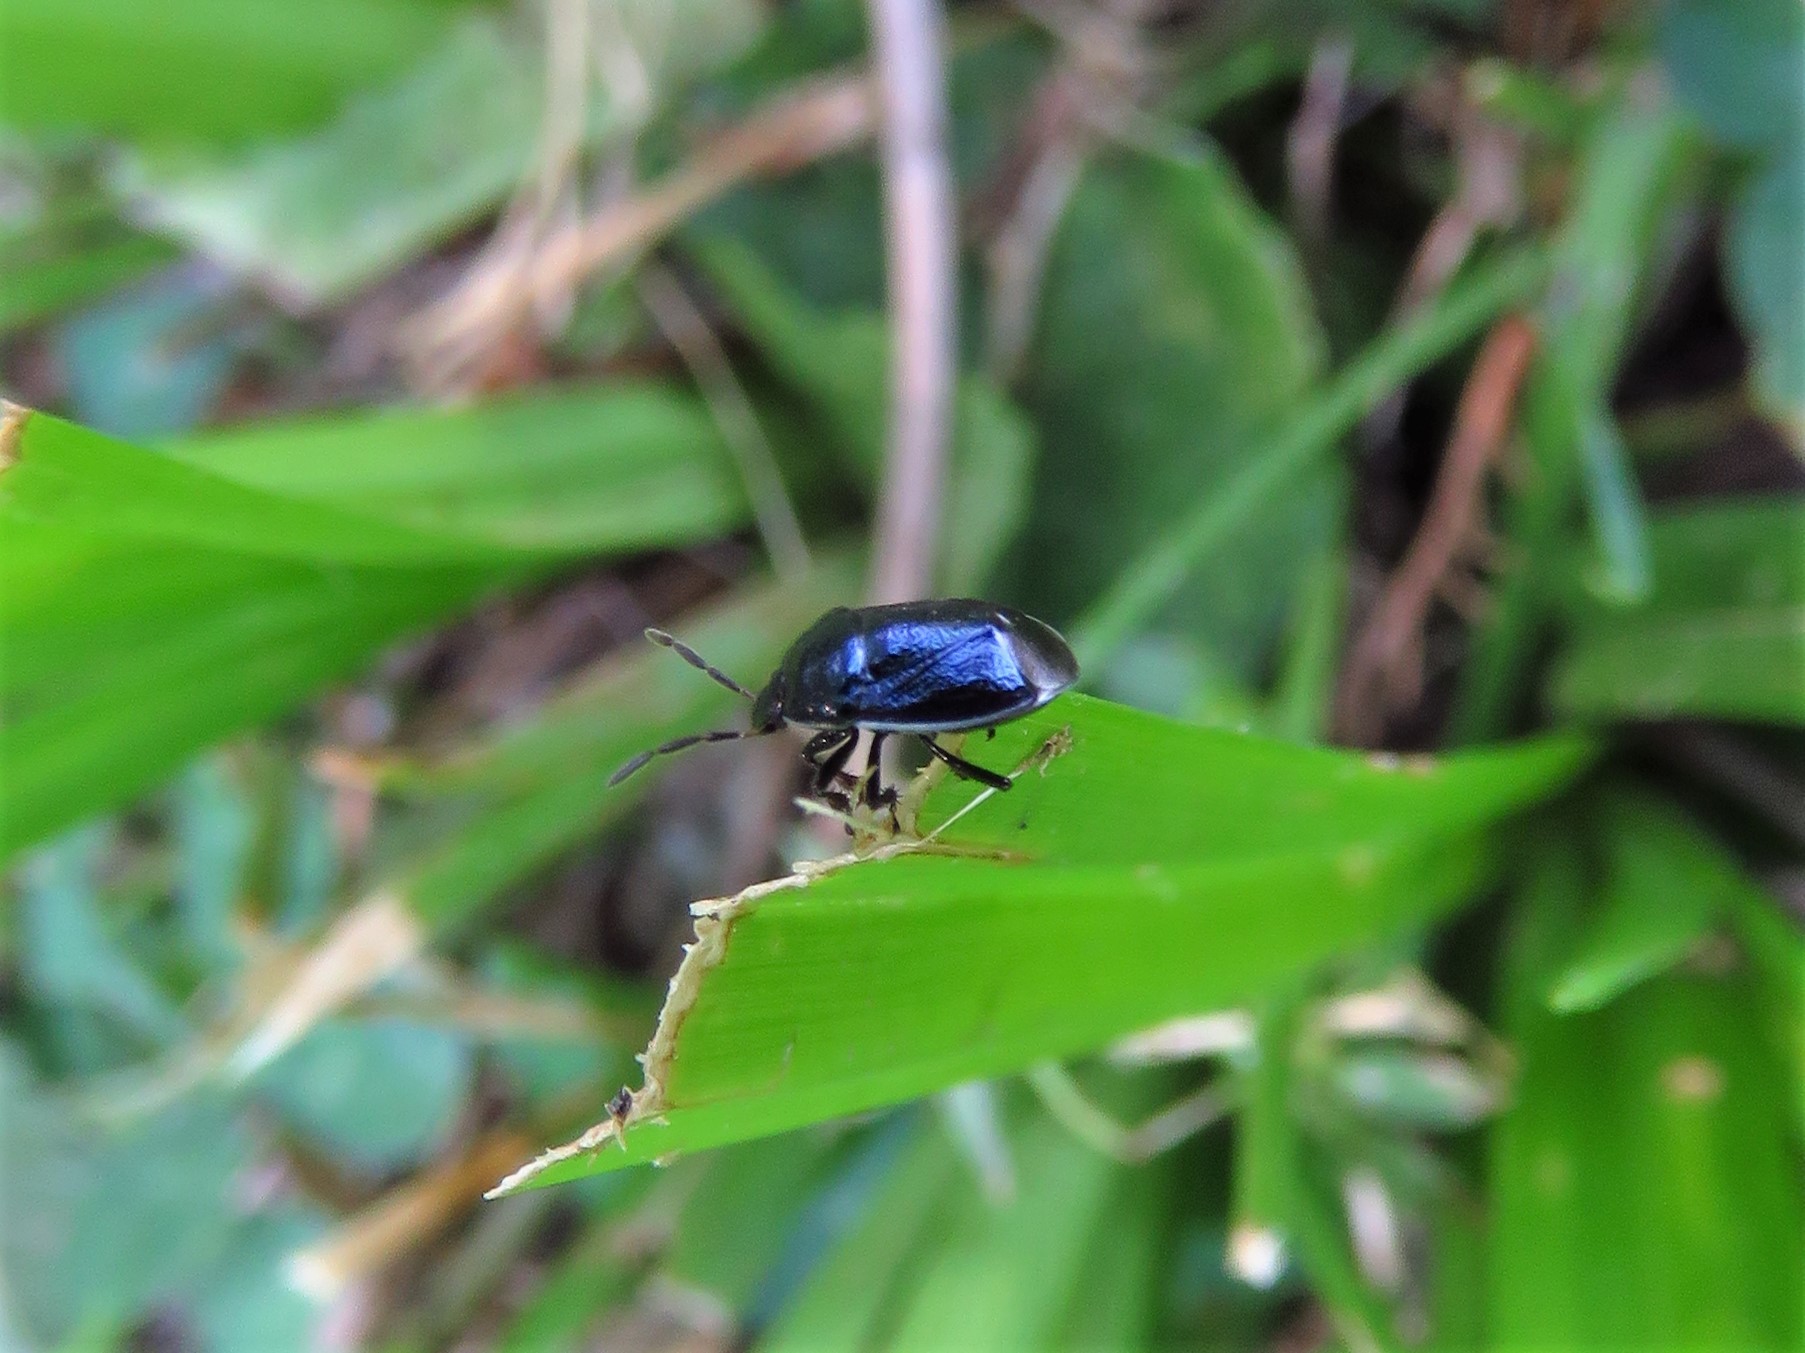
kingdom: Animalia
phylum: Arthropoda
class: Insecta
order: Hemiptera
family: Cydnidae
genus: Sehirus
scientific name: Sehirus cinctus
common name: White-margined burrower bug
